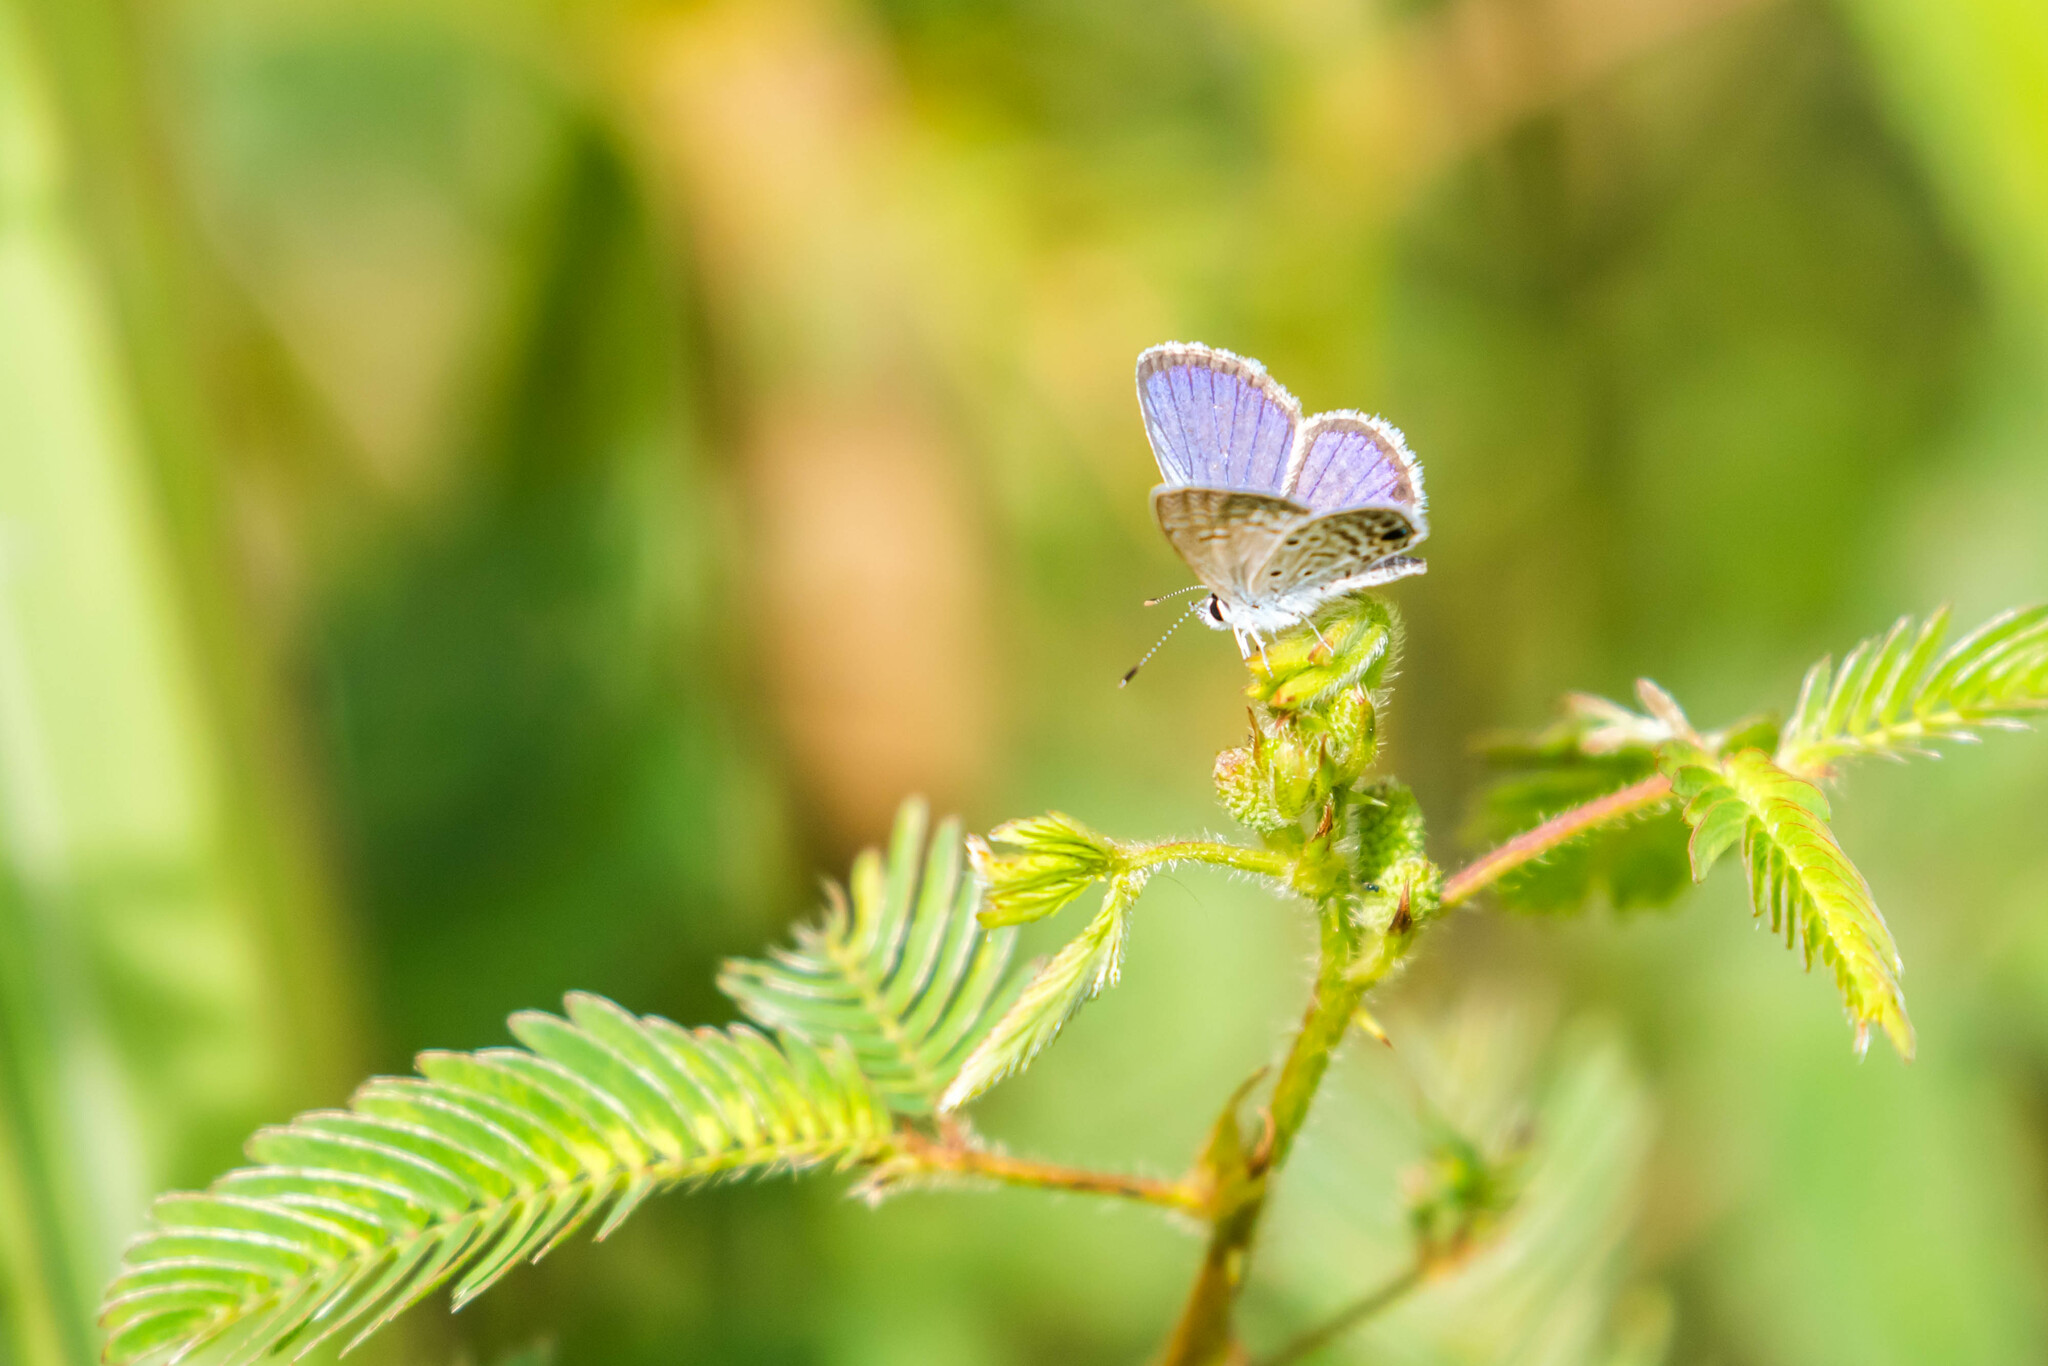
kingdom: Animalia
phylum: Arthropoda
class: Insecta
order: Lepidoptera
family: Lycaenidae
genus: Hemiargus
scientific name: Hemiargus hanno
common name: Common blue
